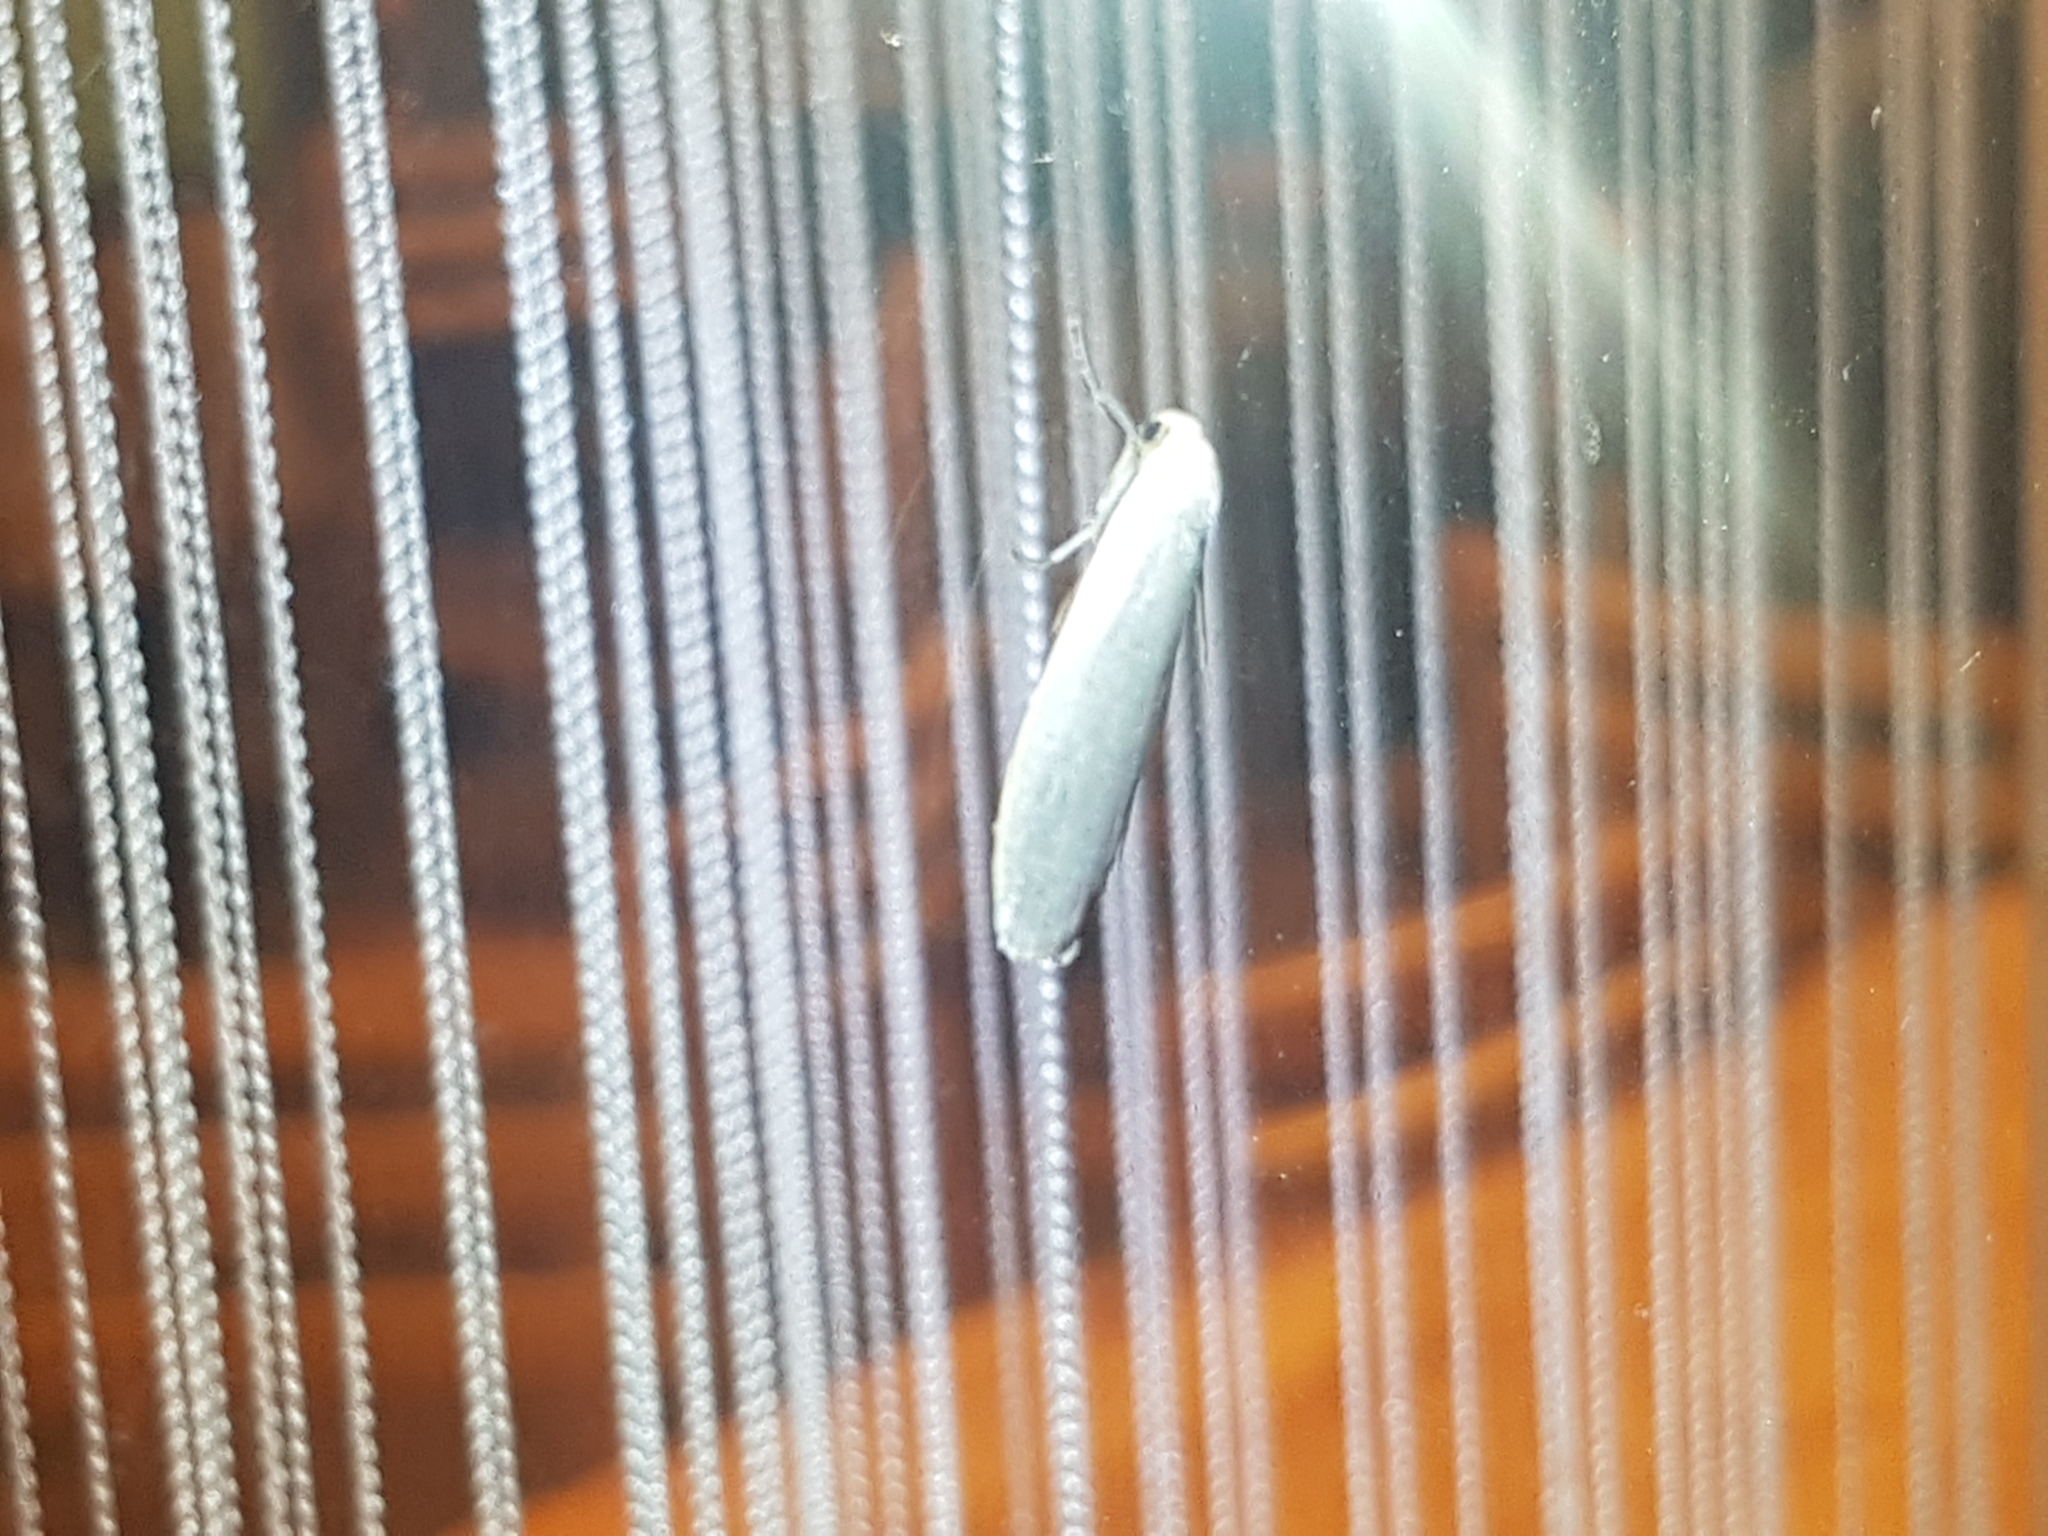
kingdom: Animalia
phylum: Arthropoda
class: Insecta
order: Lepidoptera
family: Erebidae
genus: Collita
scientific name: Collita griseola
